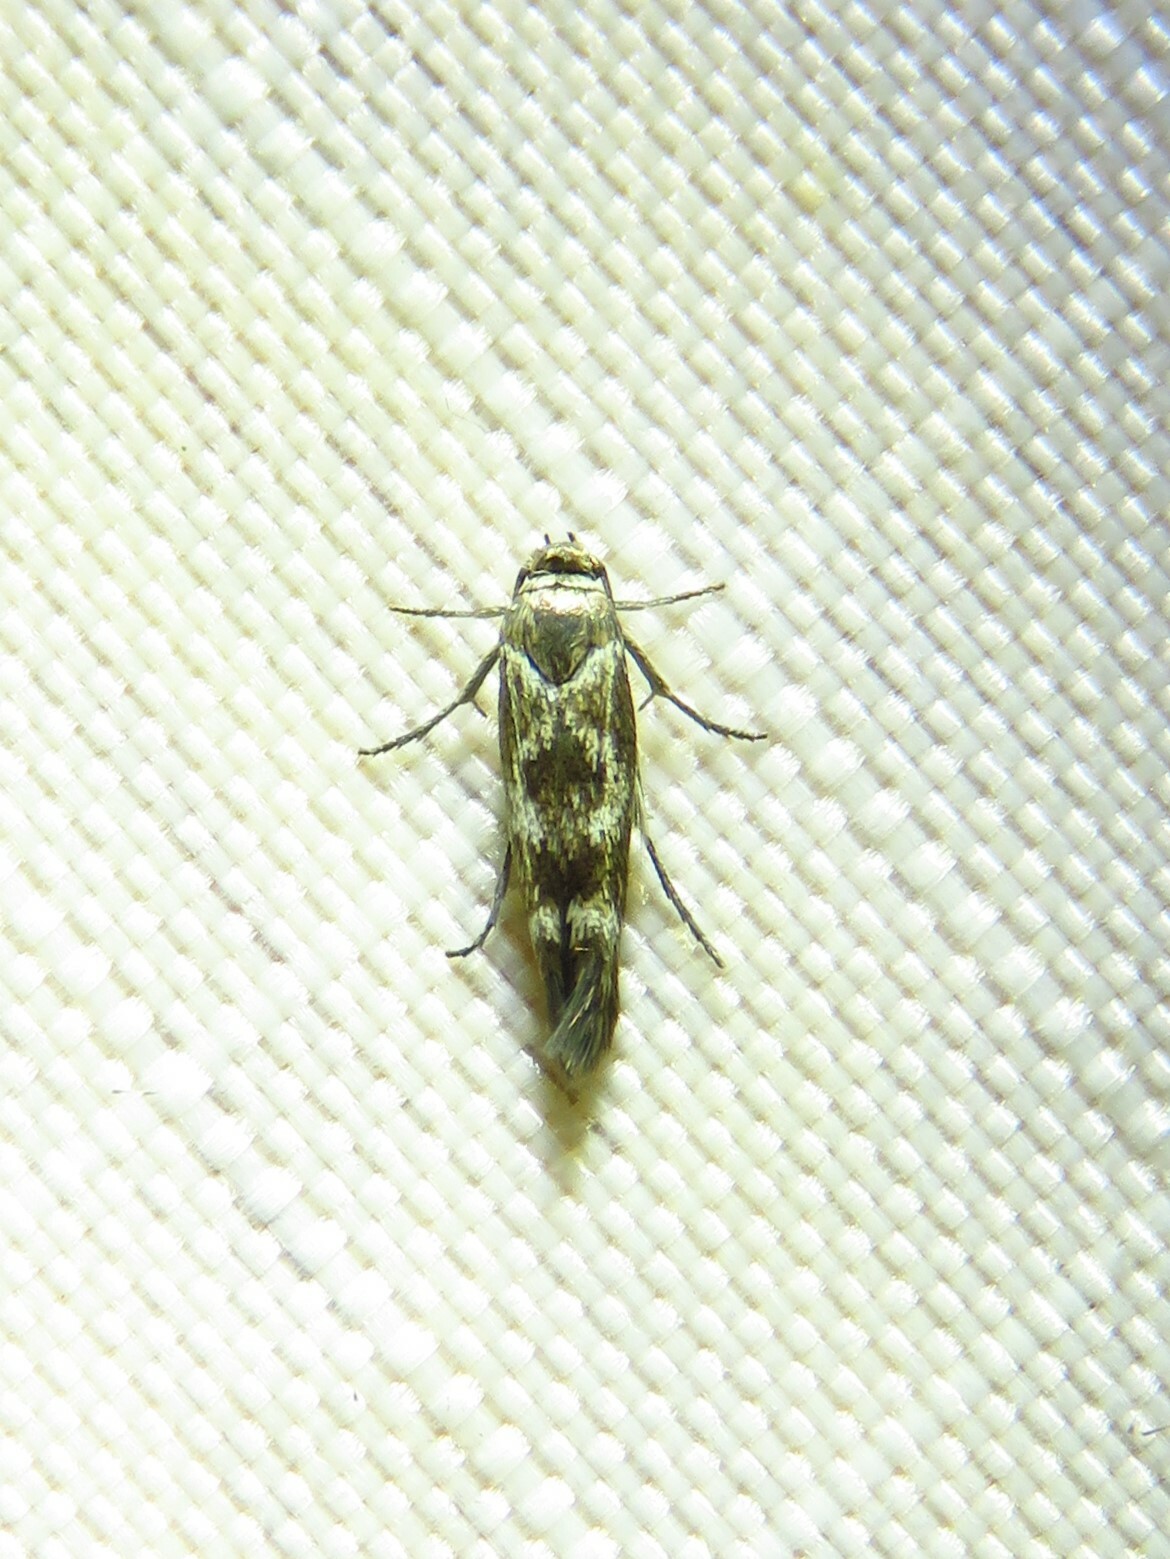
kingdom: Animalia
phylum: Arthropoda
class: Insecta
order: Lepidoptera
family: Scythrididae
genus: Scythris
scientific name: Scythris trivinctella
